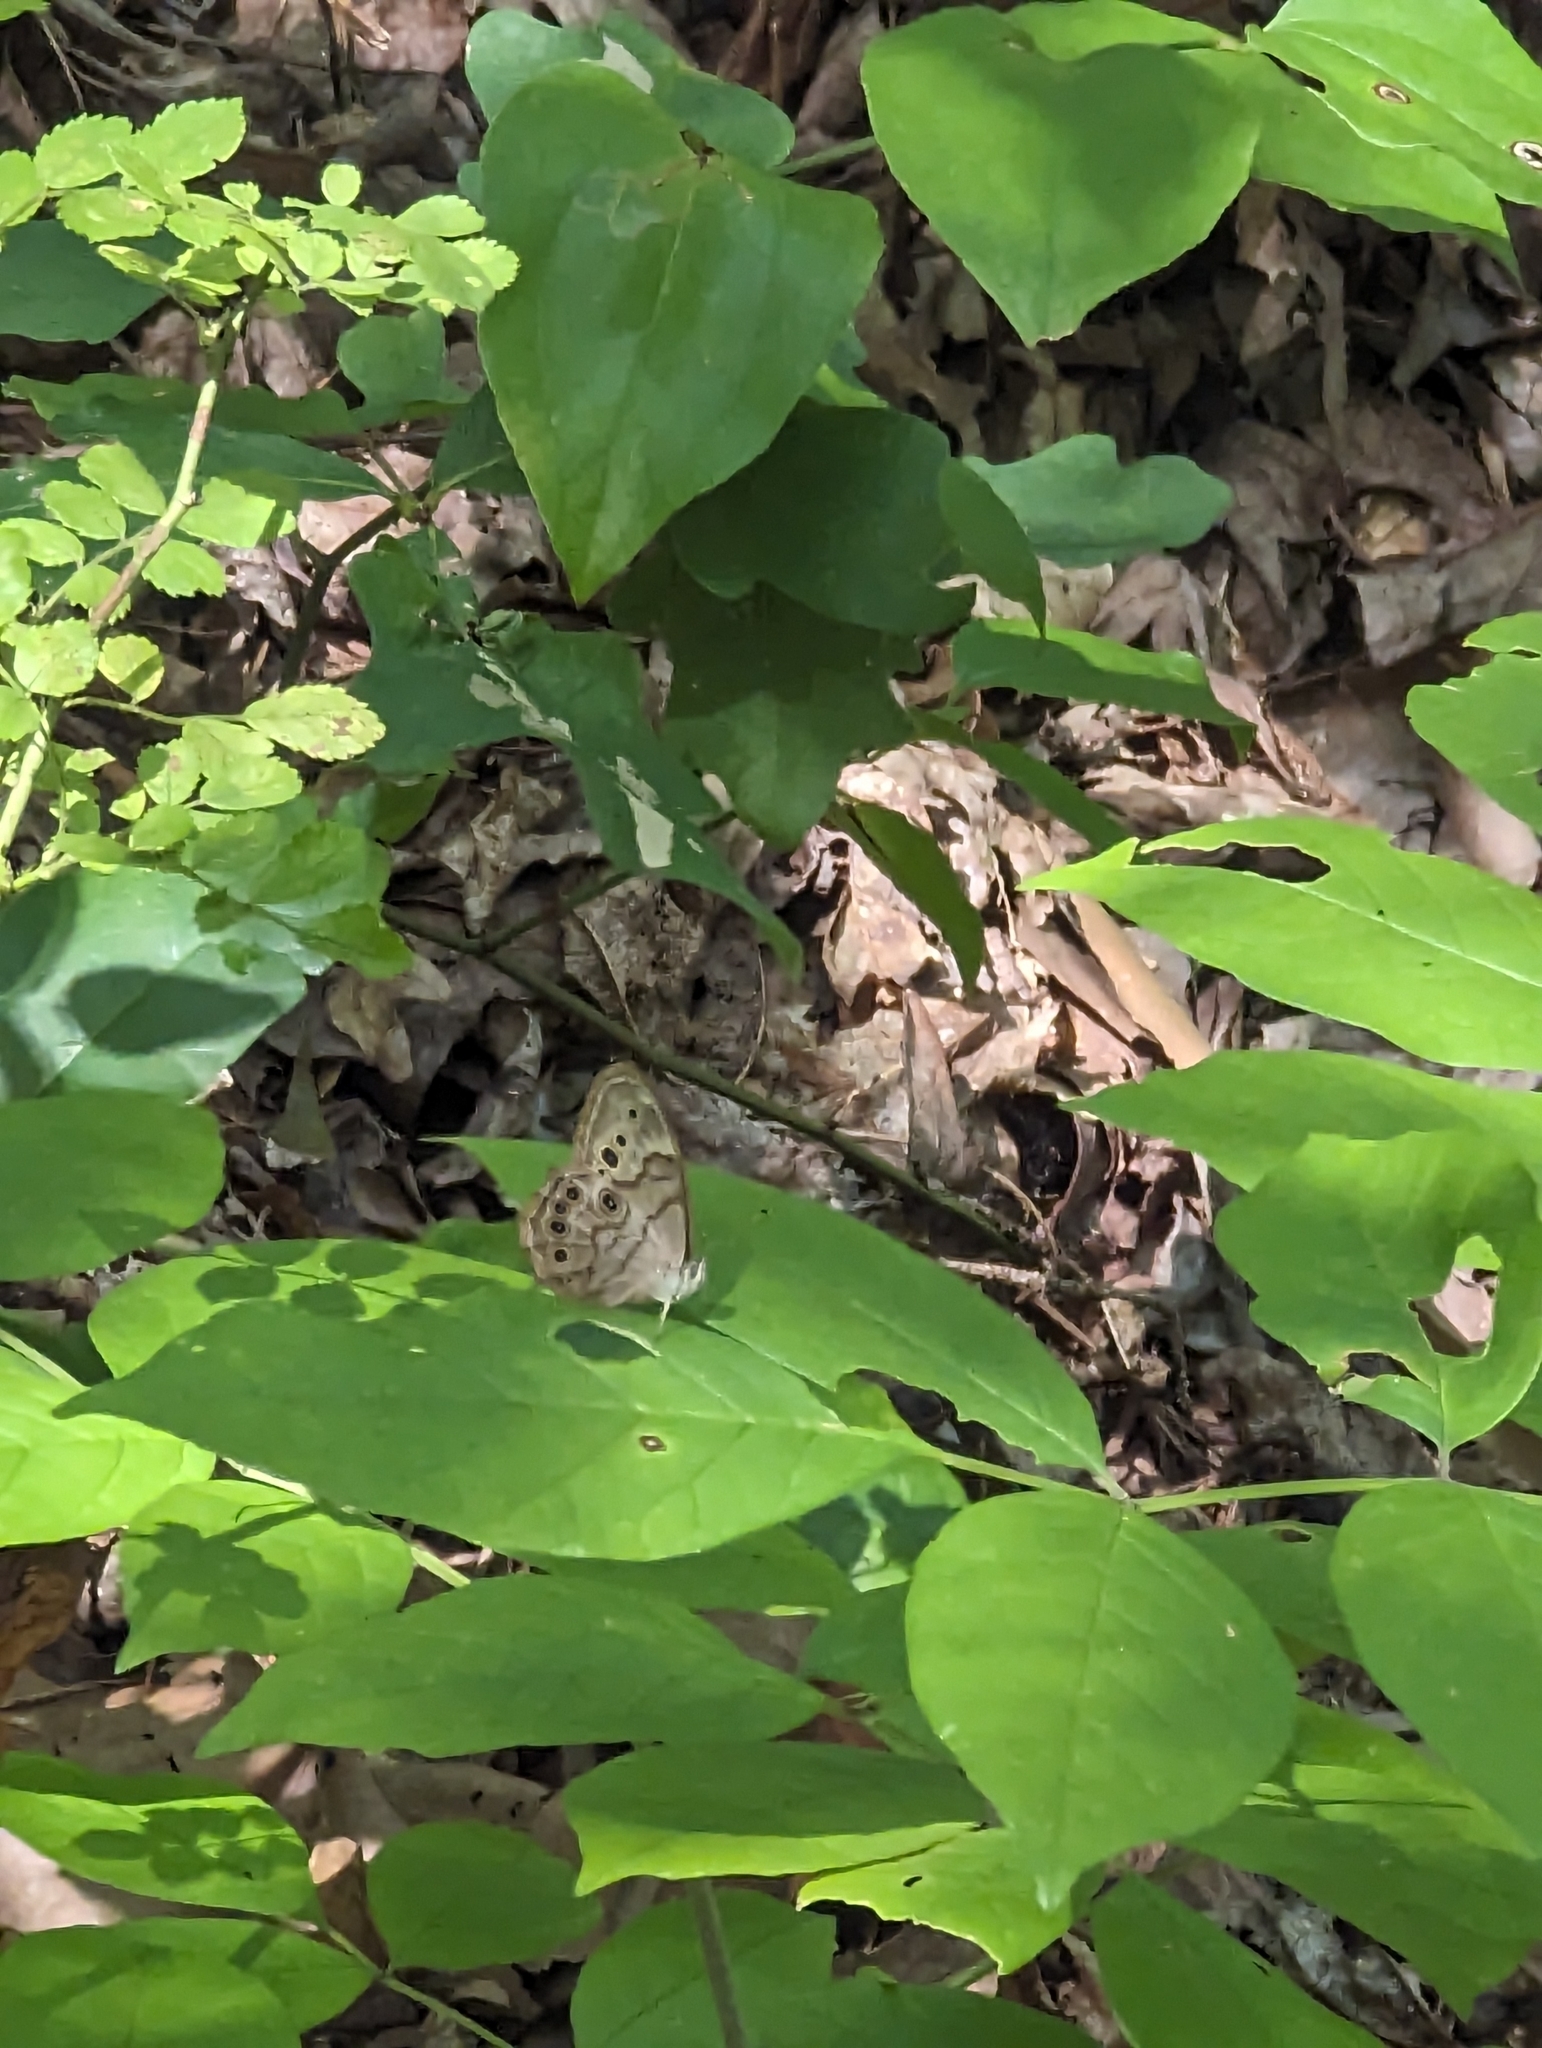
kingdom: Animalia
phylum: Arthropoda
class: Insecta
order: Lepidoptera
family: Nymphalidae
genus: Lethe
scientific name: Lethe creola
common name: Creole pearly-eye
